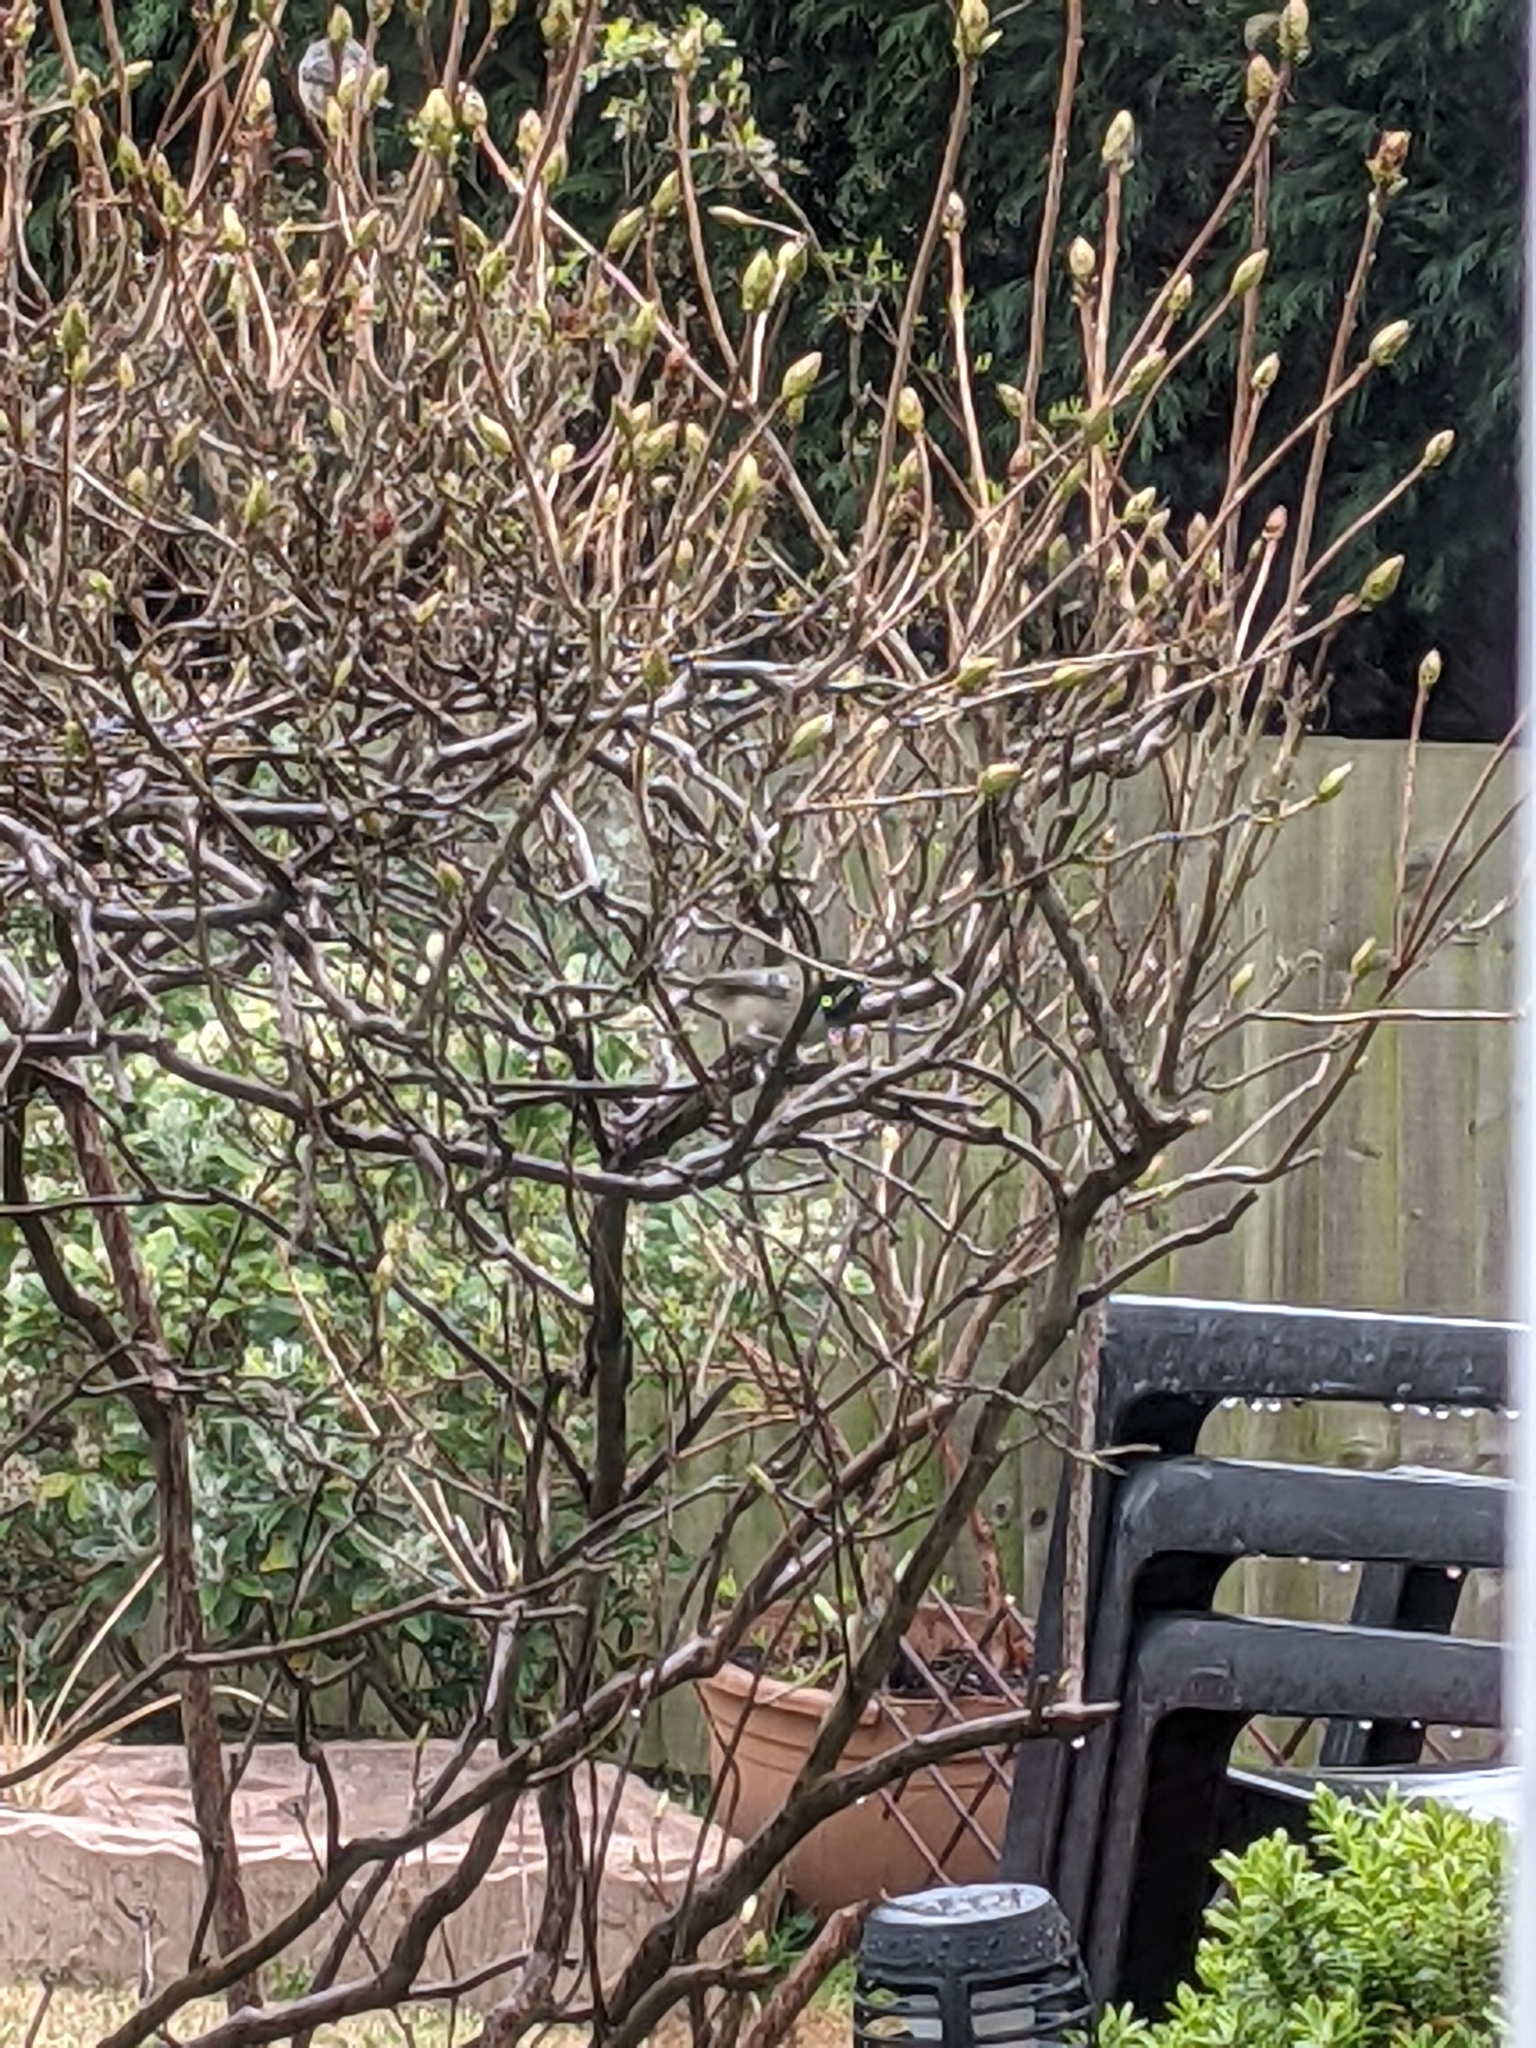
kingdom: Animalia
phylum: Chordata
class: Aves
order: Passeriformes
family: Paridae
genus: Periparus
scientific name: Periparus ater
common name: Coal tit
